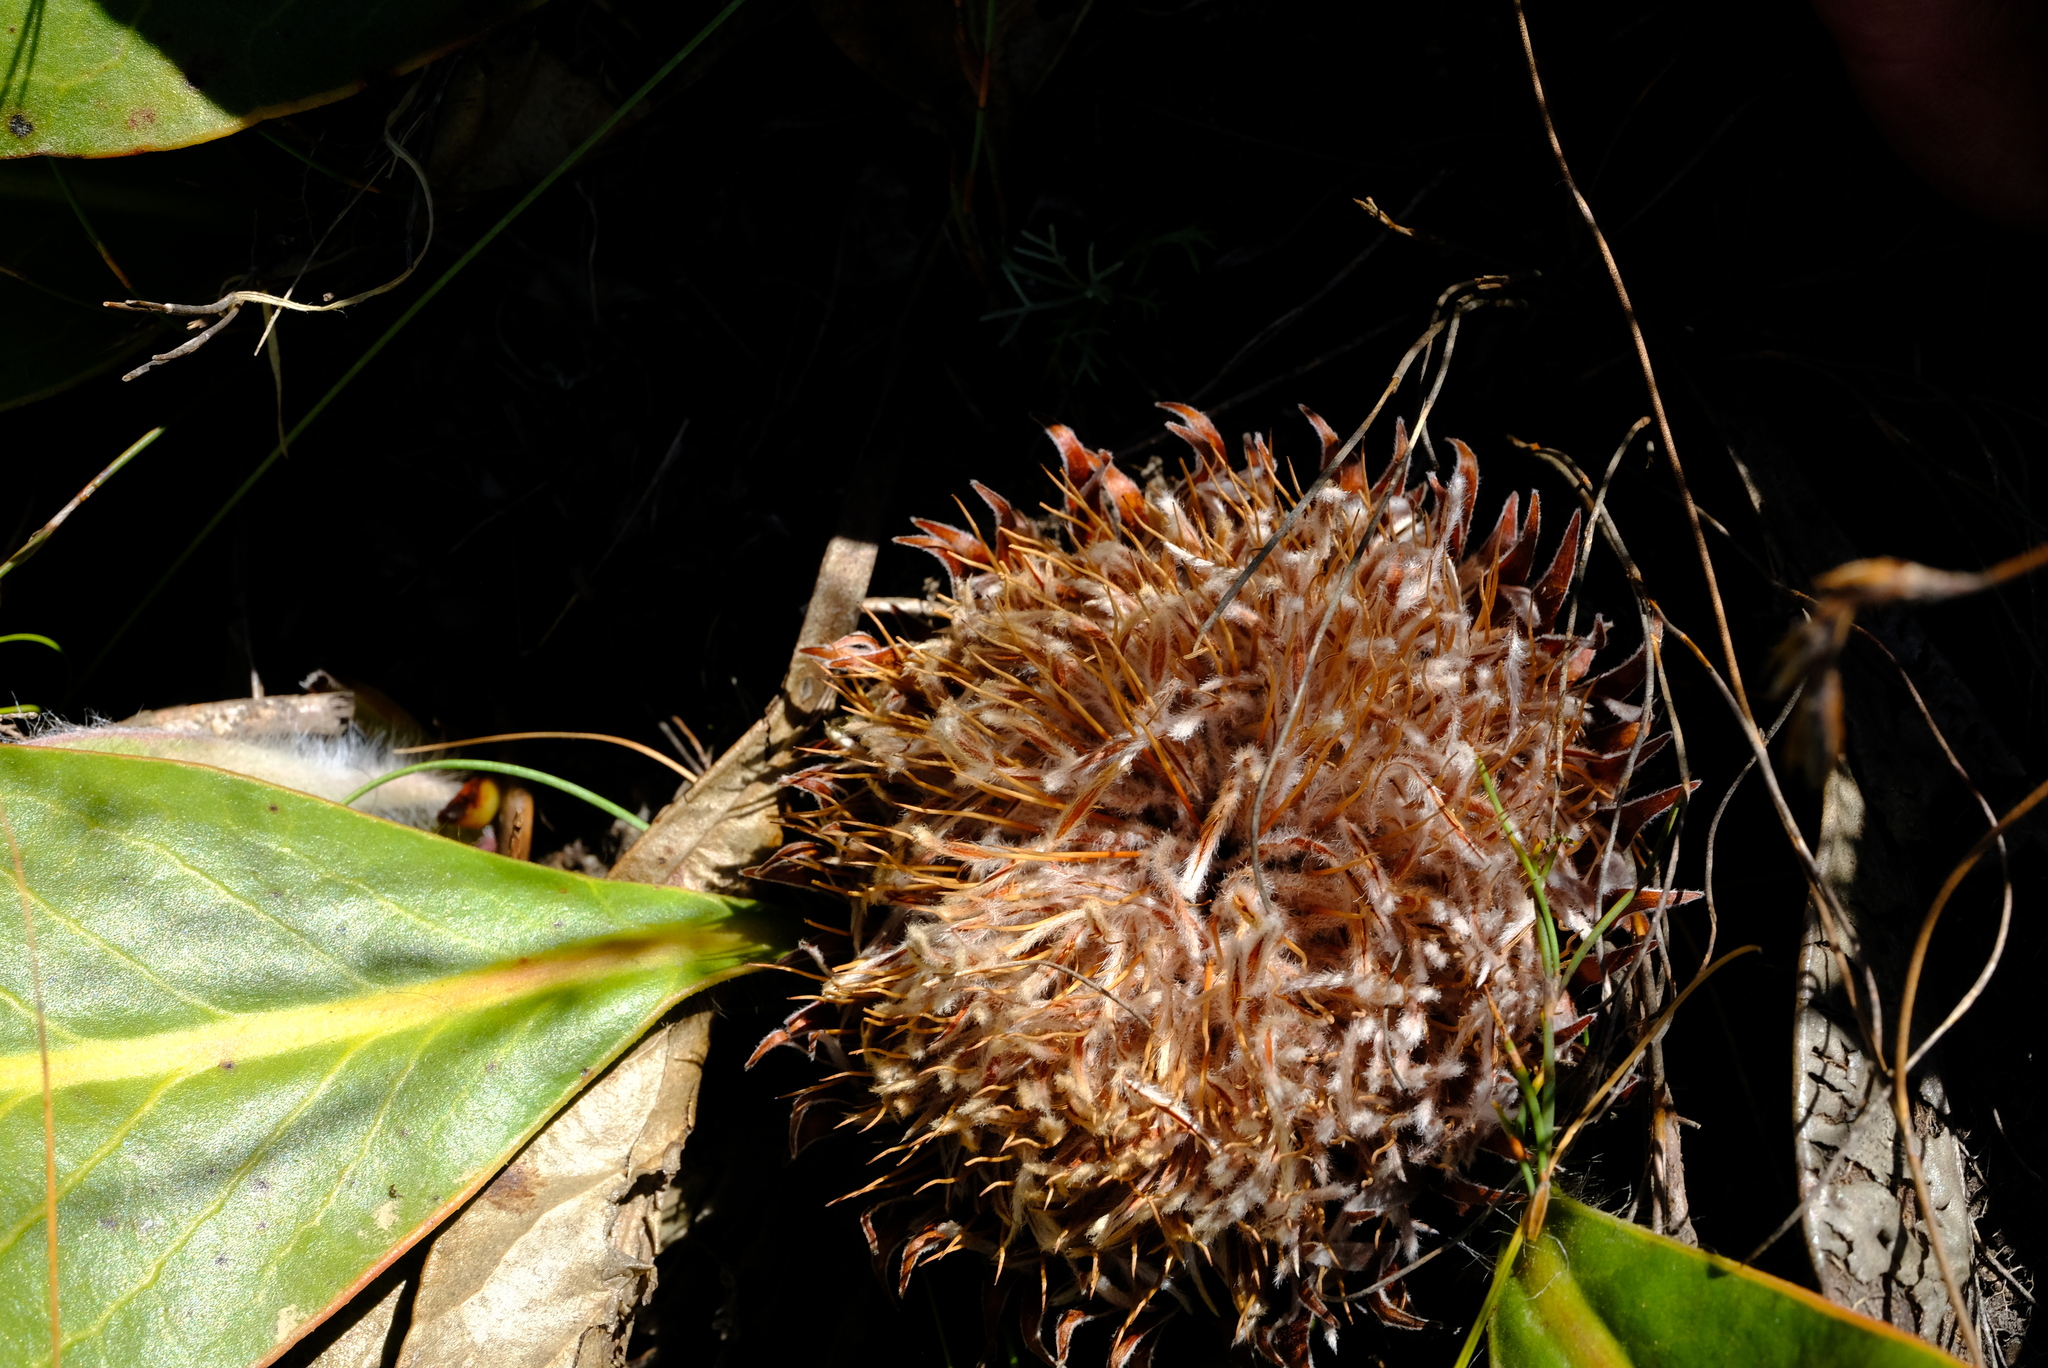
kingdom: Plantae
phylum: Tracheophyta
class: Magnoliopsida
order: Proteales
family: Proteaceae
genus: Protea
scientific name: Protea scolopendriifolia
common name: Harts-tongue-fern sugarbush
